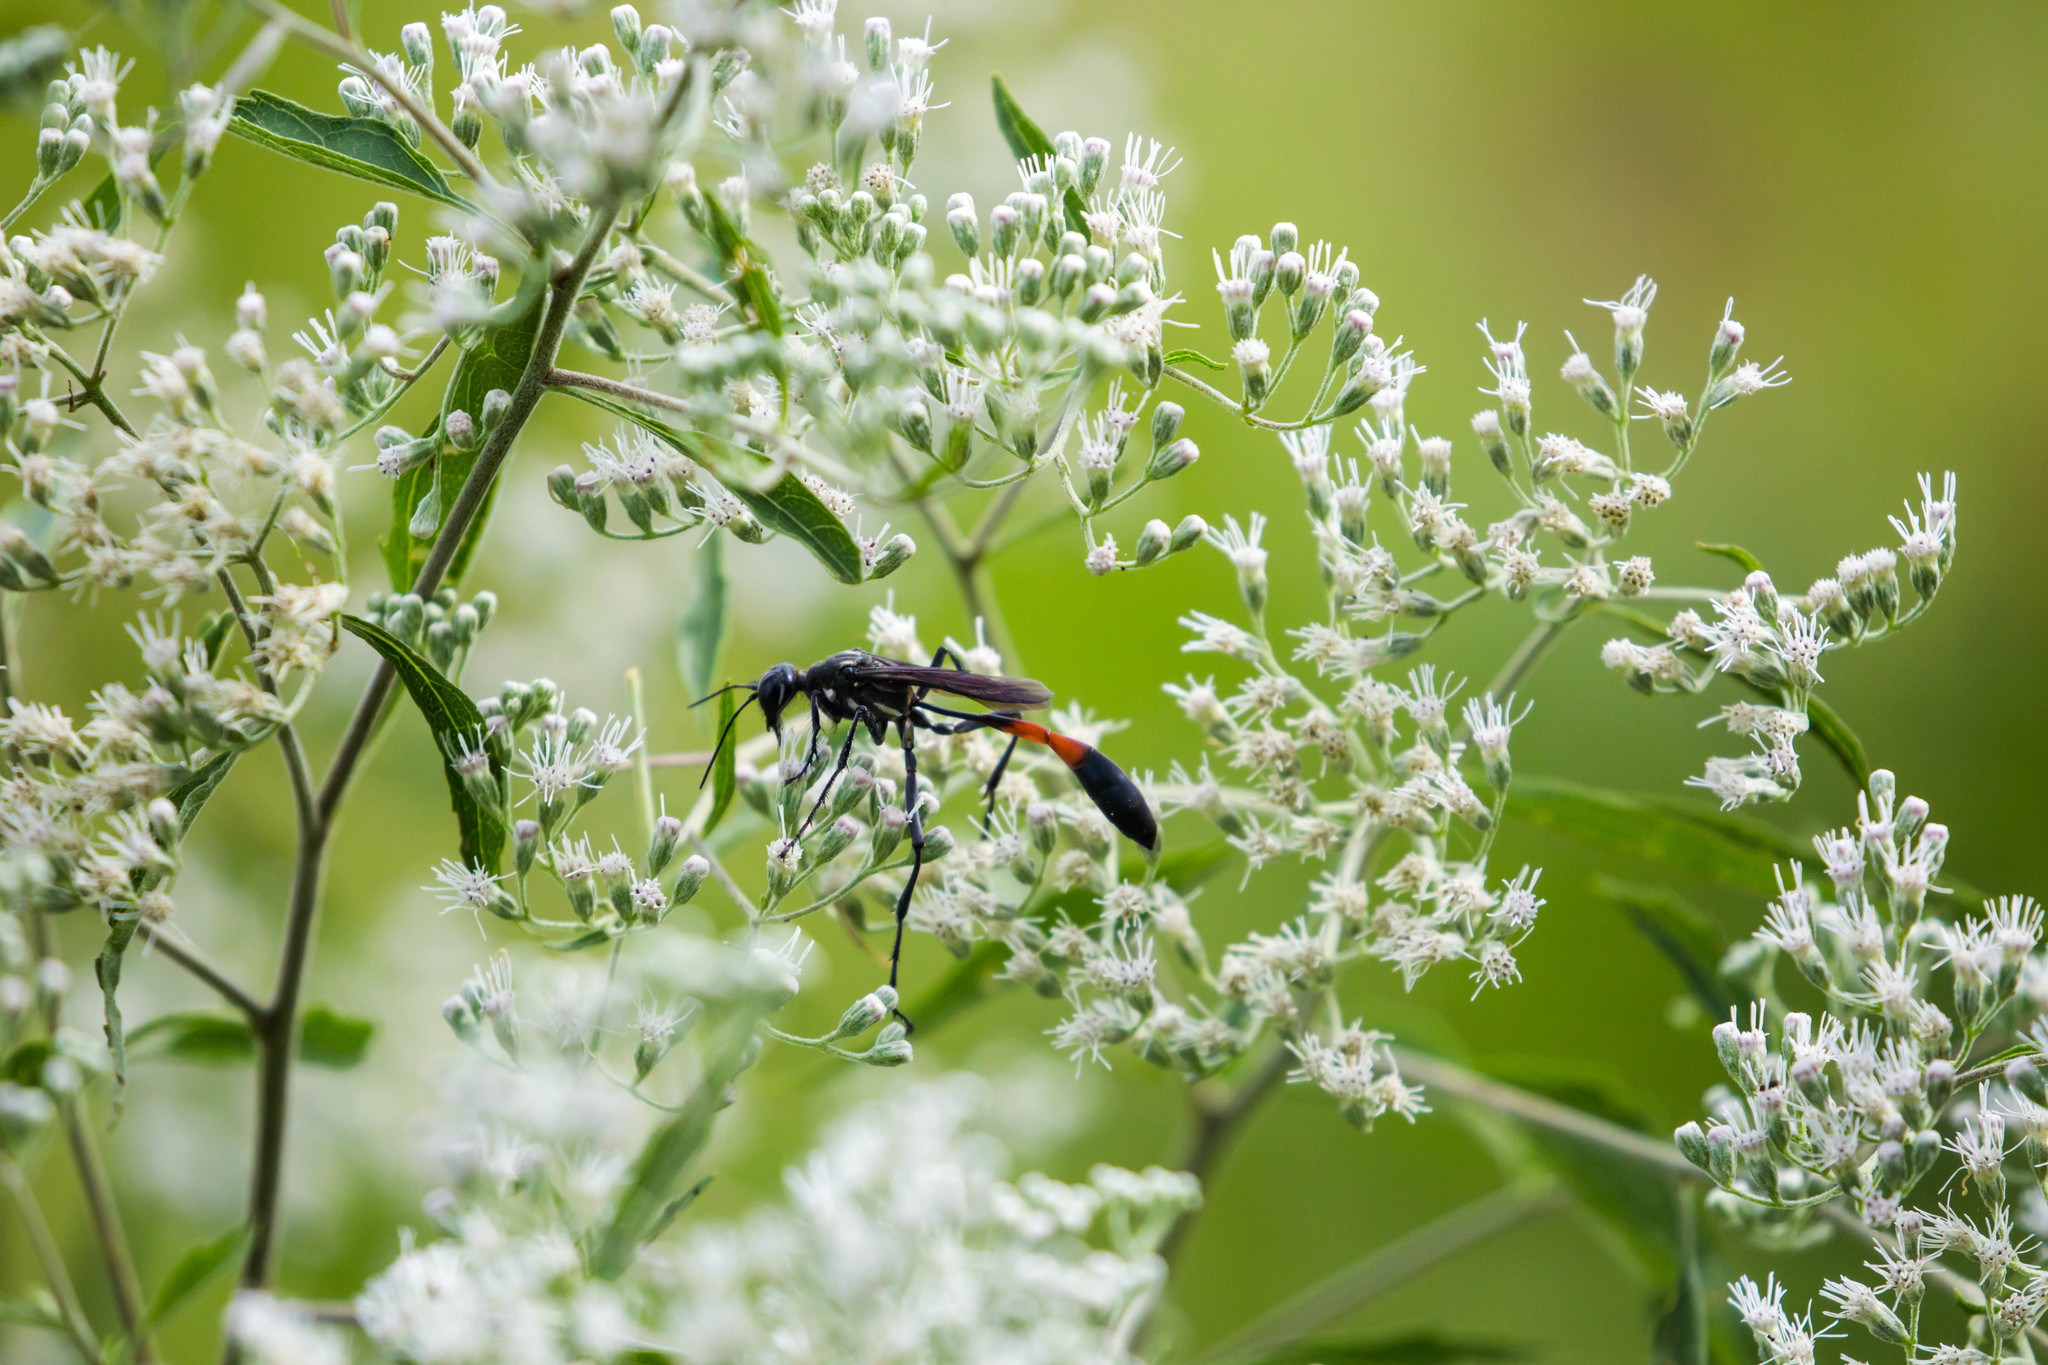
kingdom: Animalia
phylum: Arthropoda
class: Insecta
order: Hymenoptera
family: Sphecidae
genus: Ammophila
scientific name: Ammophila procera
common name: Common thread-waisted wasp
